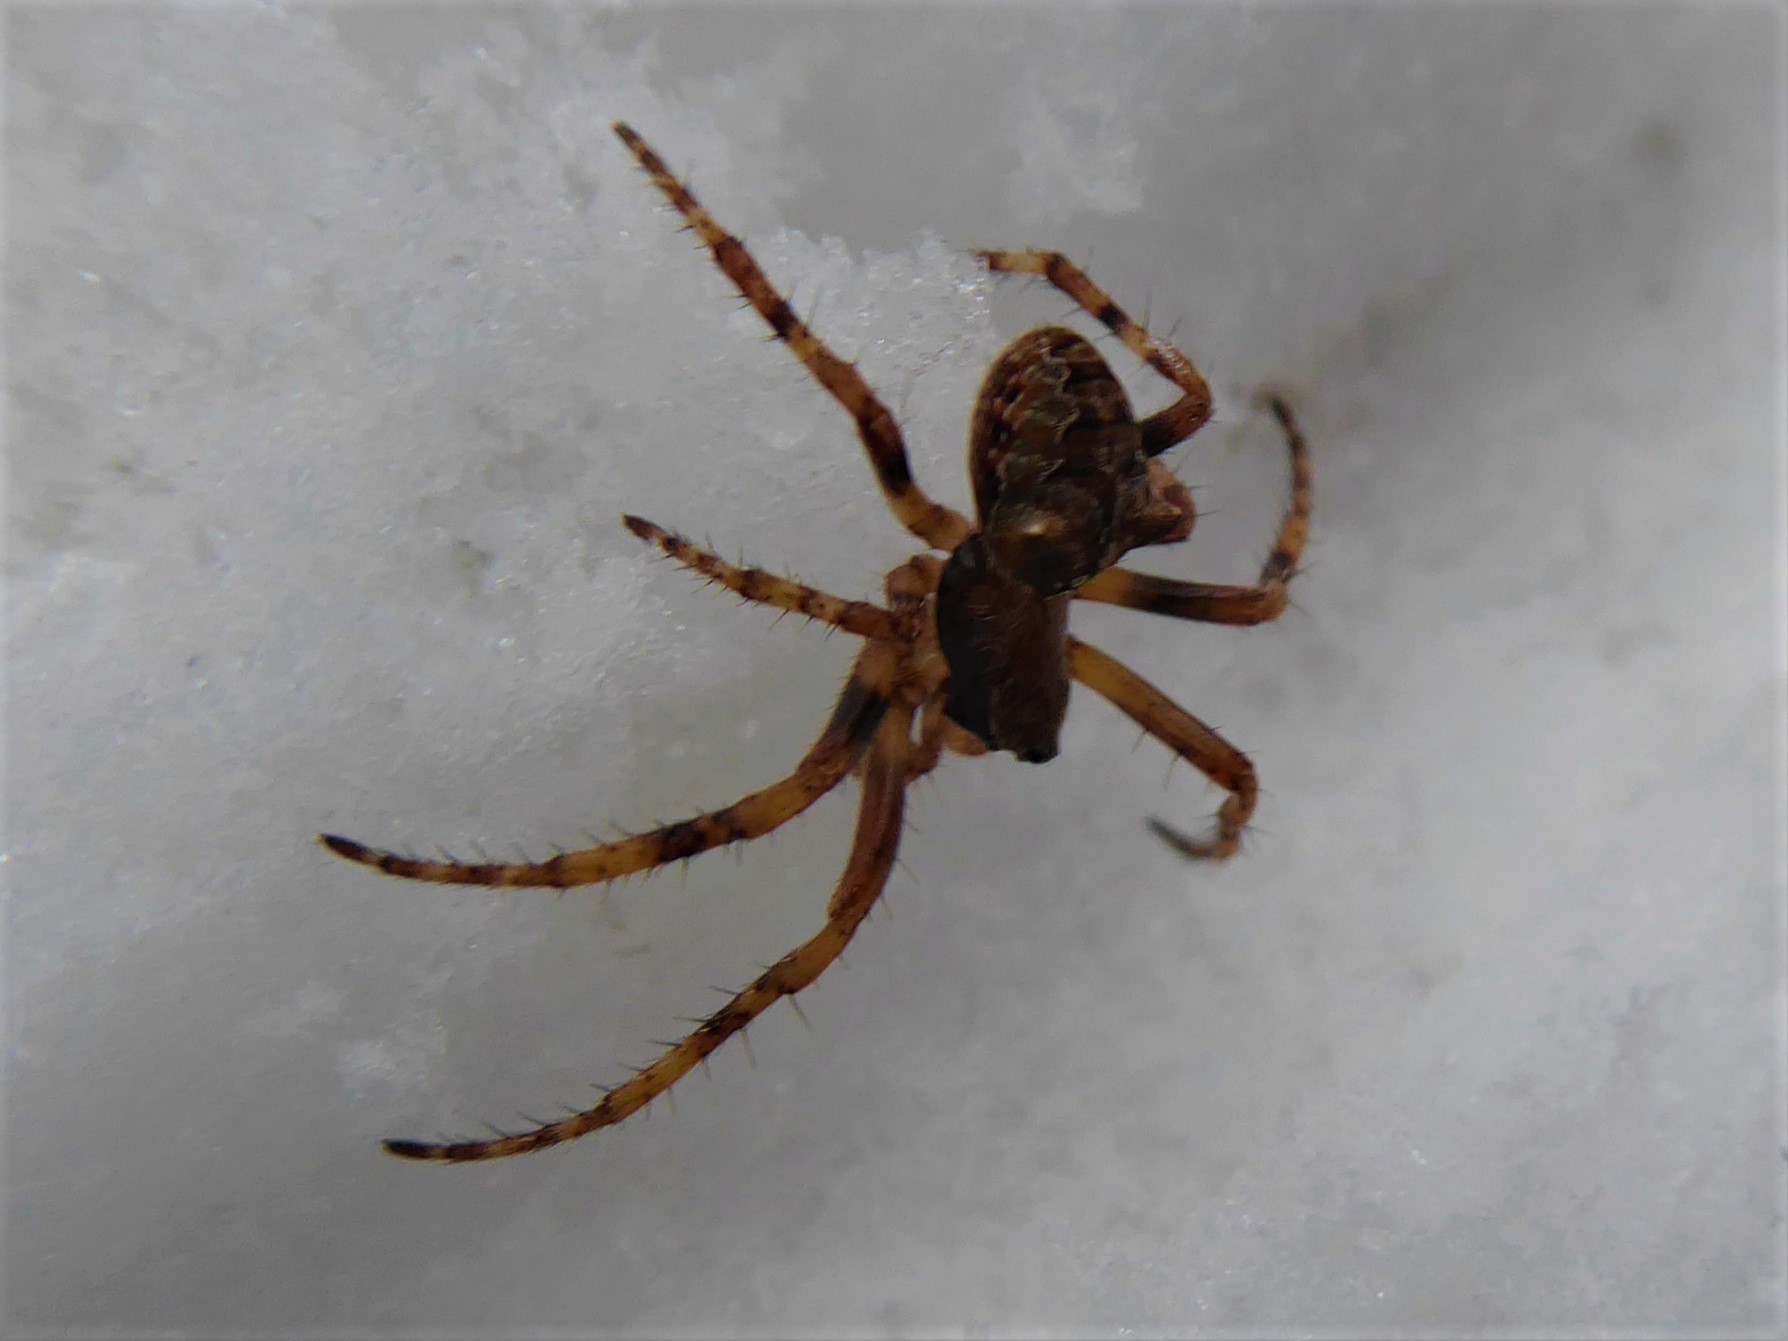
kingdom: Animalia
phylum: Arthropoda
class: Arachnida
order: Araneae
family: Araneidae
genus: Gibbaranea
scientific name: Gibbaranea omoeda
